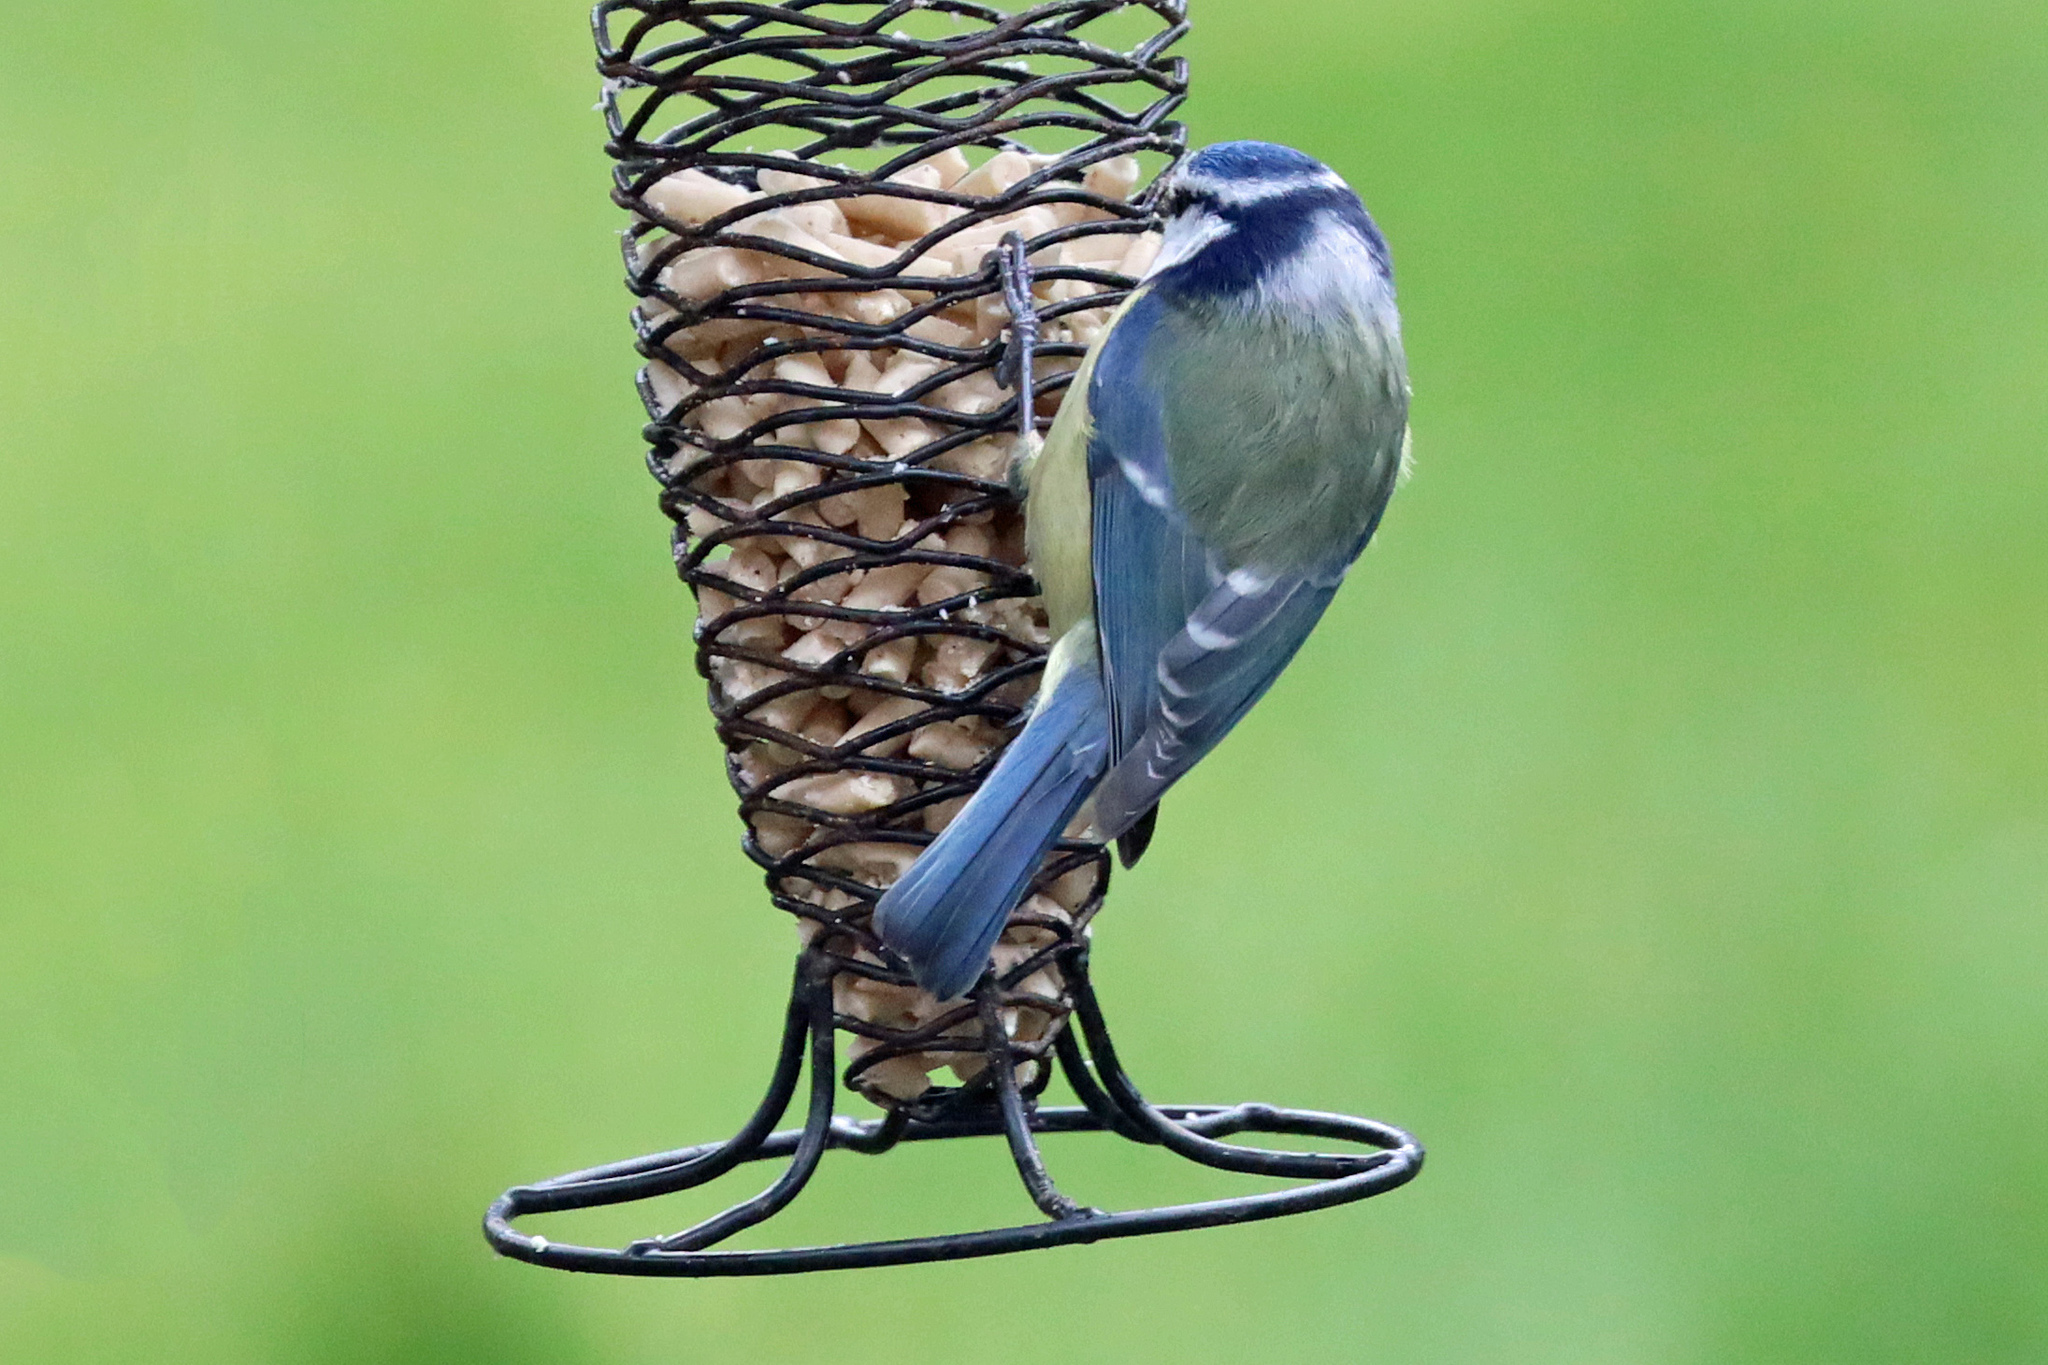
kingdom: Animalia
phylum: Chordata
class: Aves
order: Passeriformes
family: Paridae
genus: Cyanistes
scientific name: Cyanistes caeruleus
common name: Eurasian blue tit
